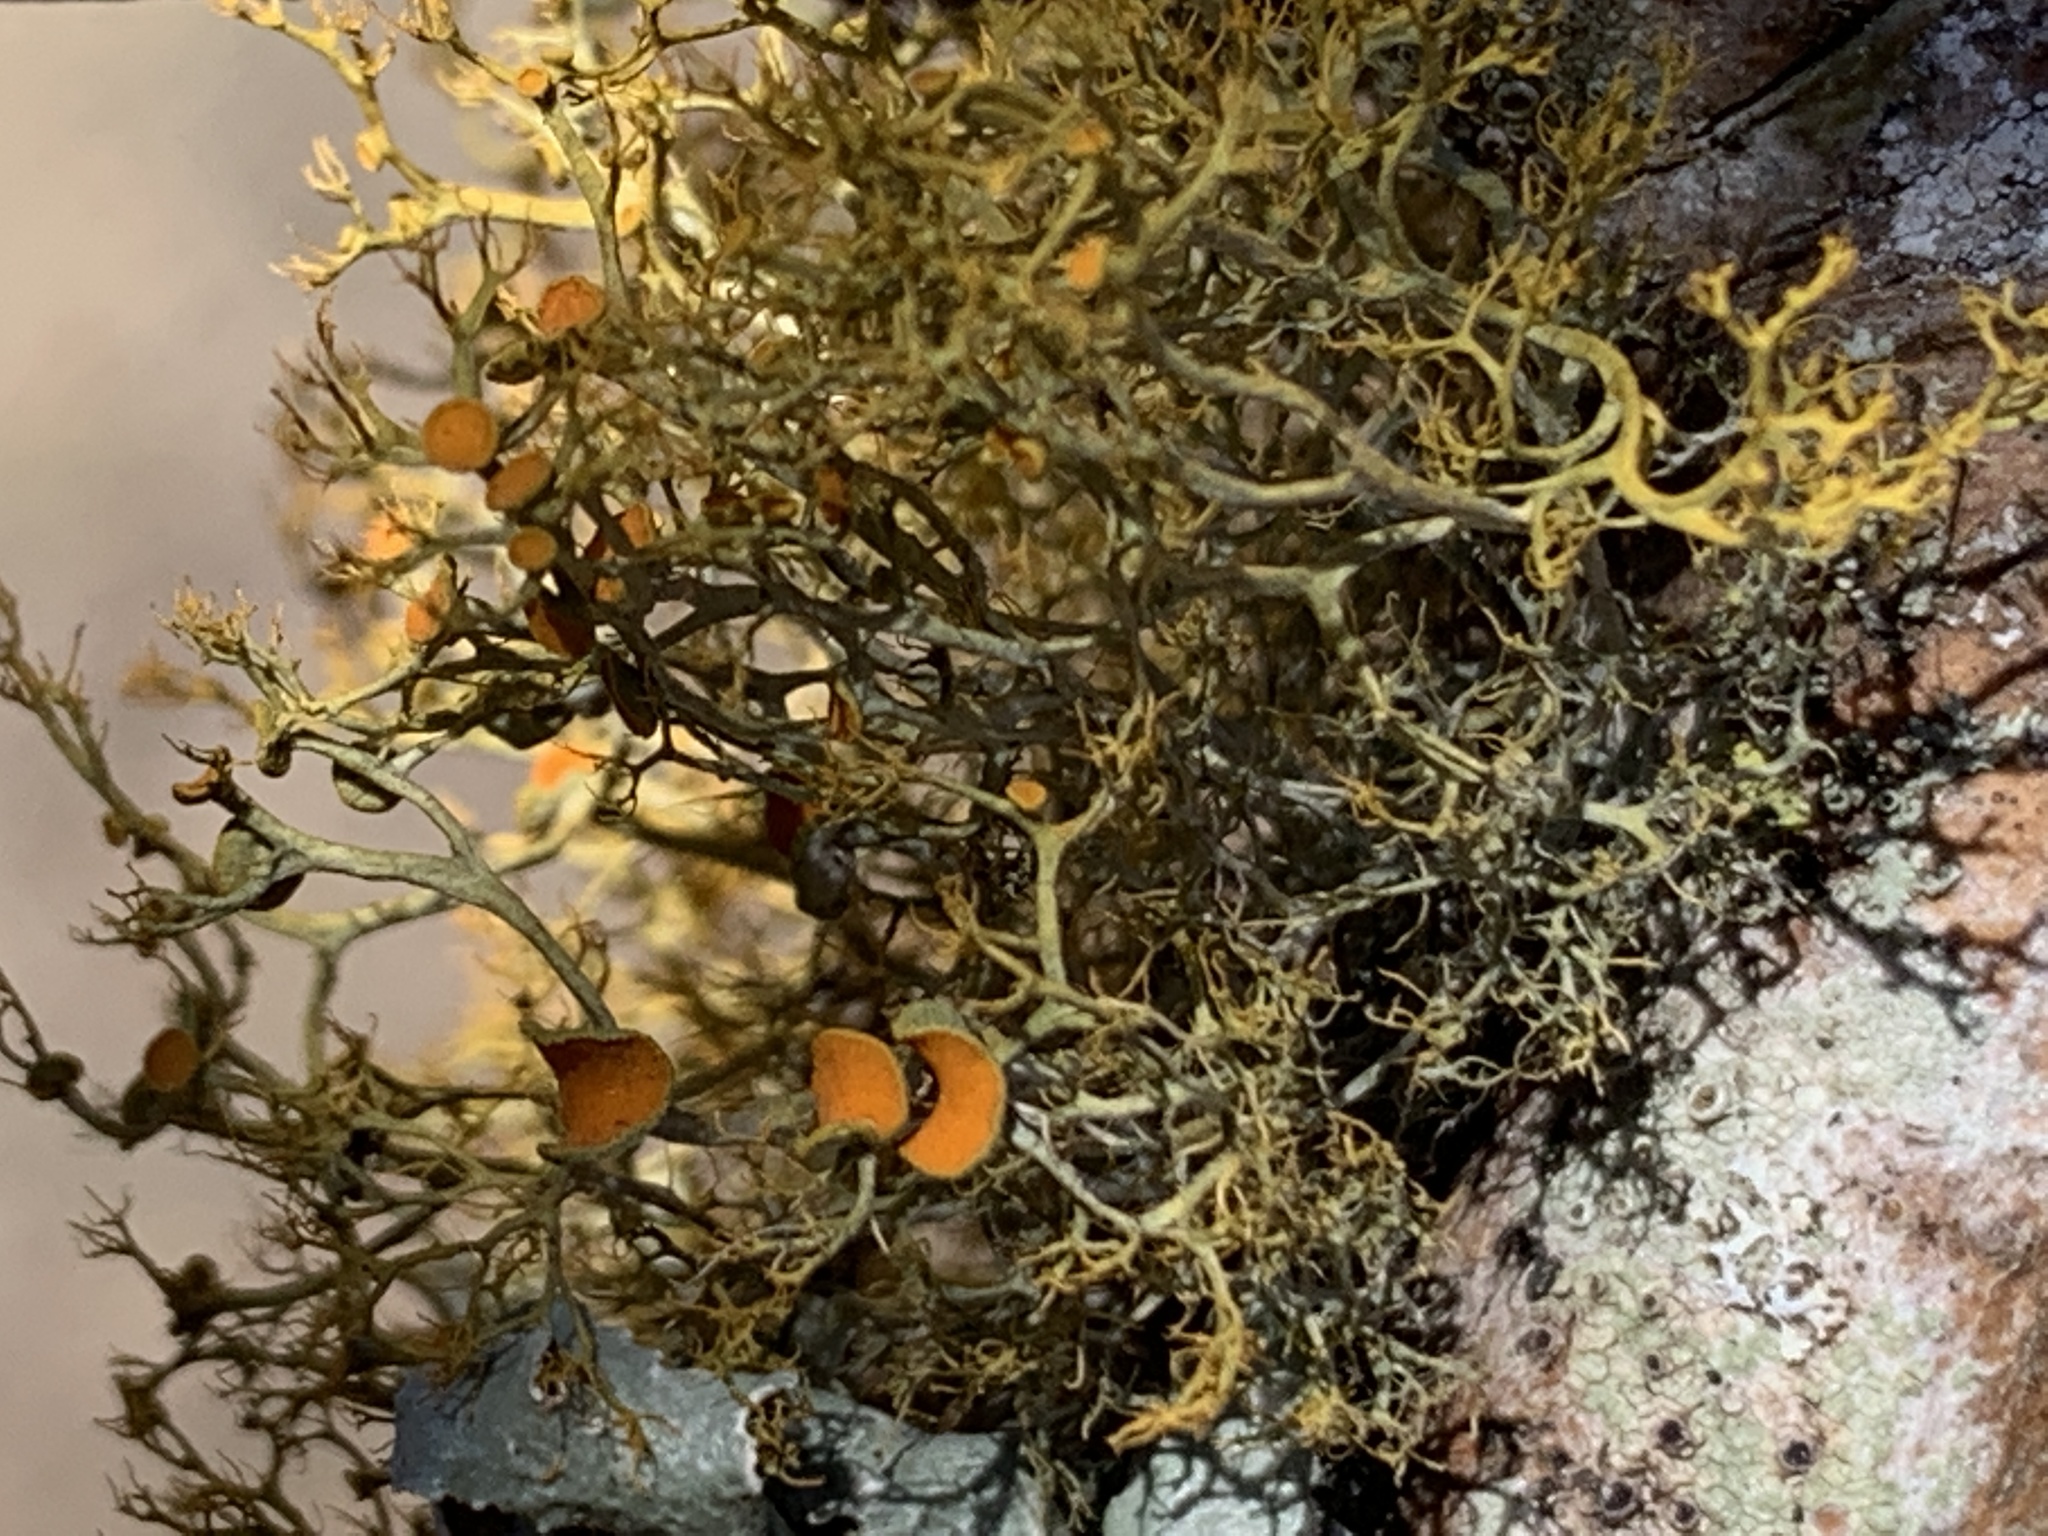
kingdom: Fungi
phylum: Ascomycota
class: Lecanoromycetes
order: Teloschistales
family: Teloschistaceae
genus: Teloschistes
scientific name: Teloschistes exilis
